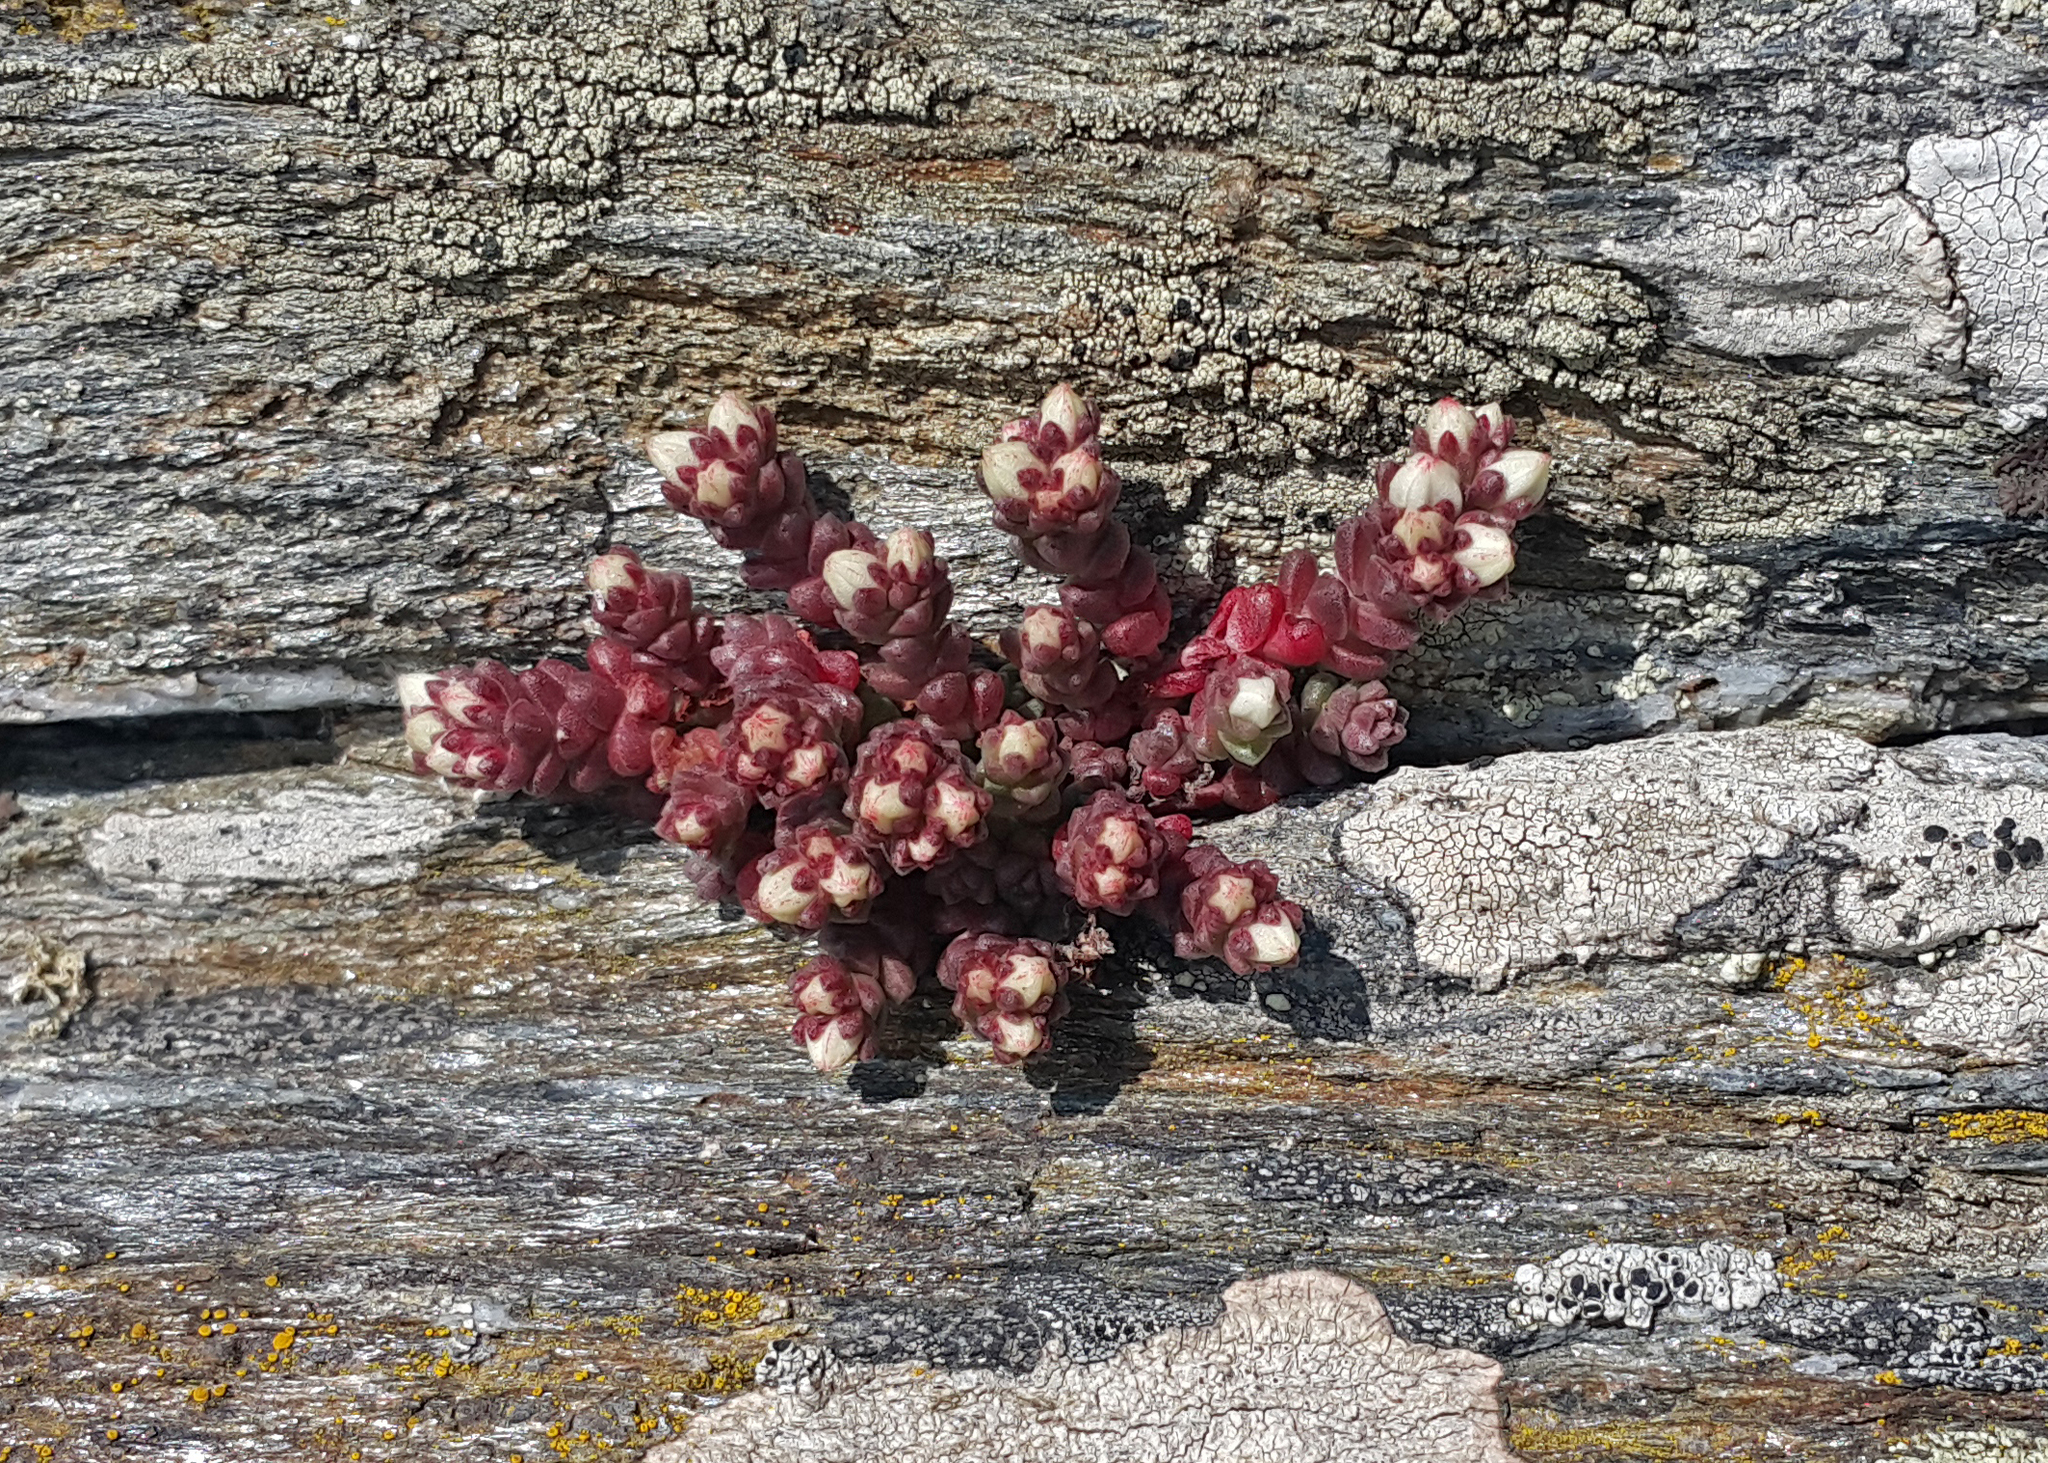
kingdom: Plantae
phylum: Tracheophyta
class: Magnoliopsida
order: Saxifragales
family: Crassulaceae
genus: Sedum
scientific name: Sedum anglicum
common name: English stonecrop
